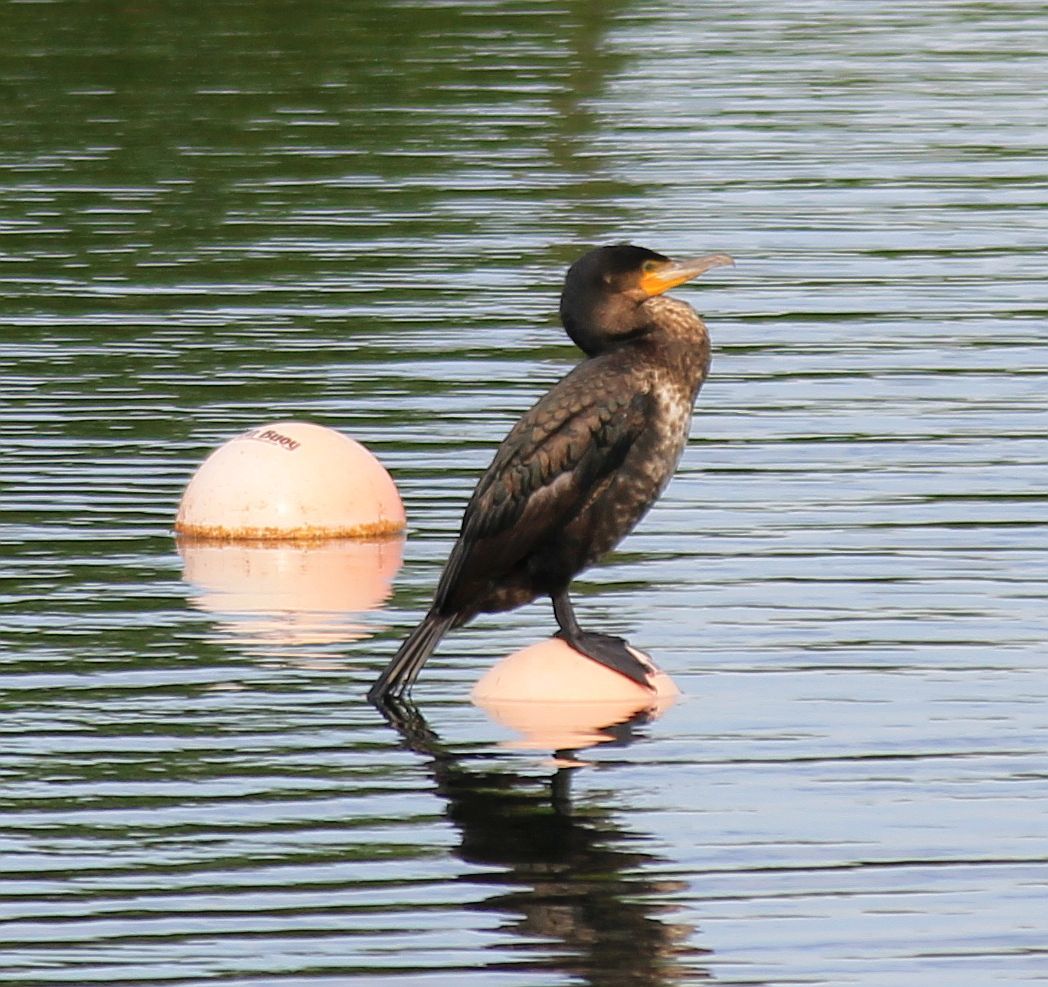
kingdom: Animalia
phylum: Chordata
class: Aves
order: Suliformes
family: Phalacrocoracidae
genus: Phalacrocorax
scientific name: Phalacrocorax carbo
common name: Great cormorant
